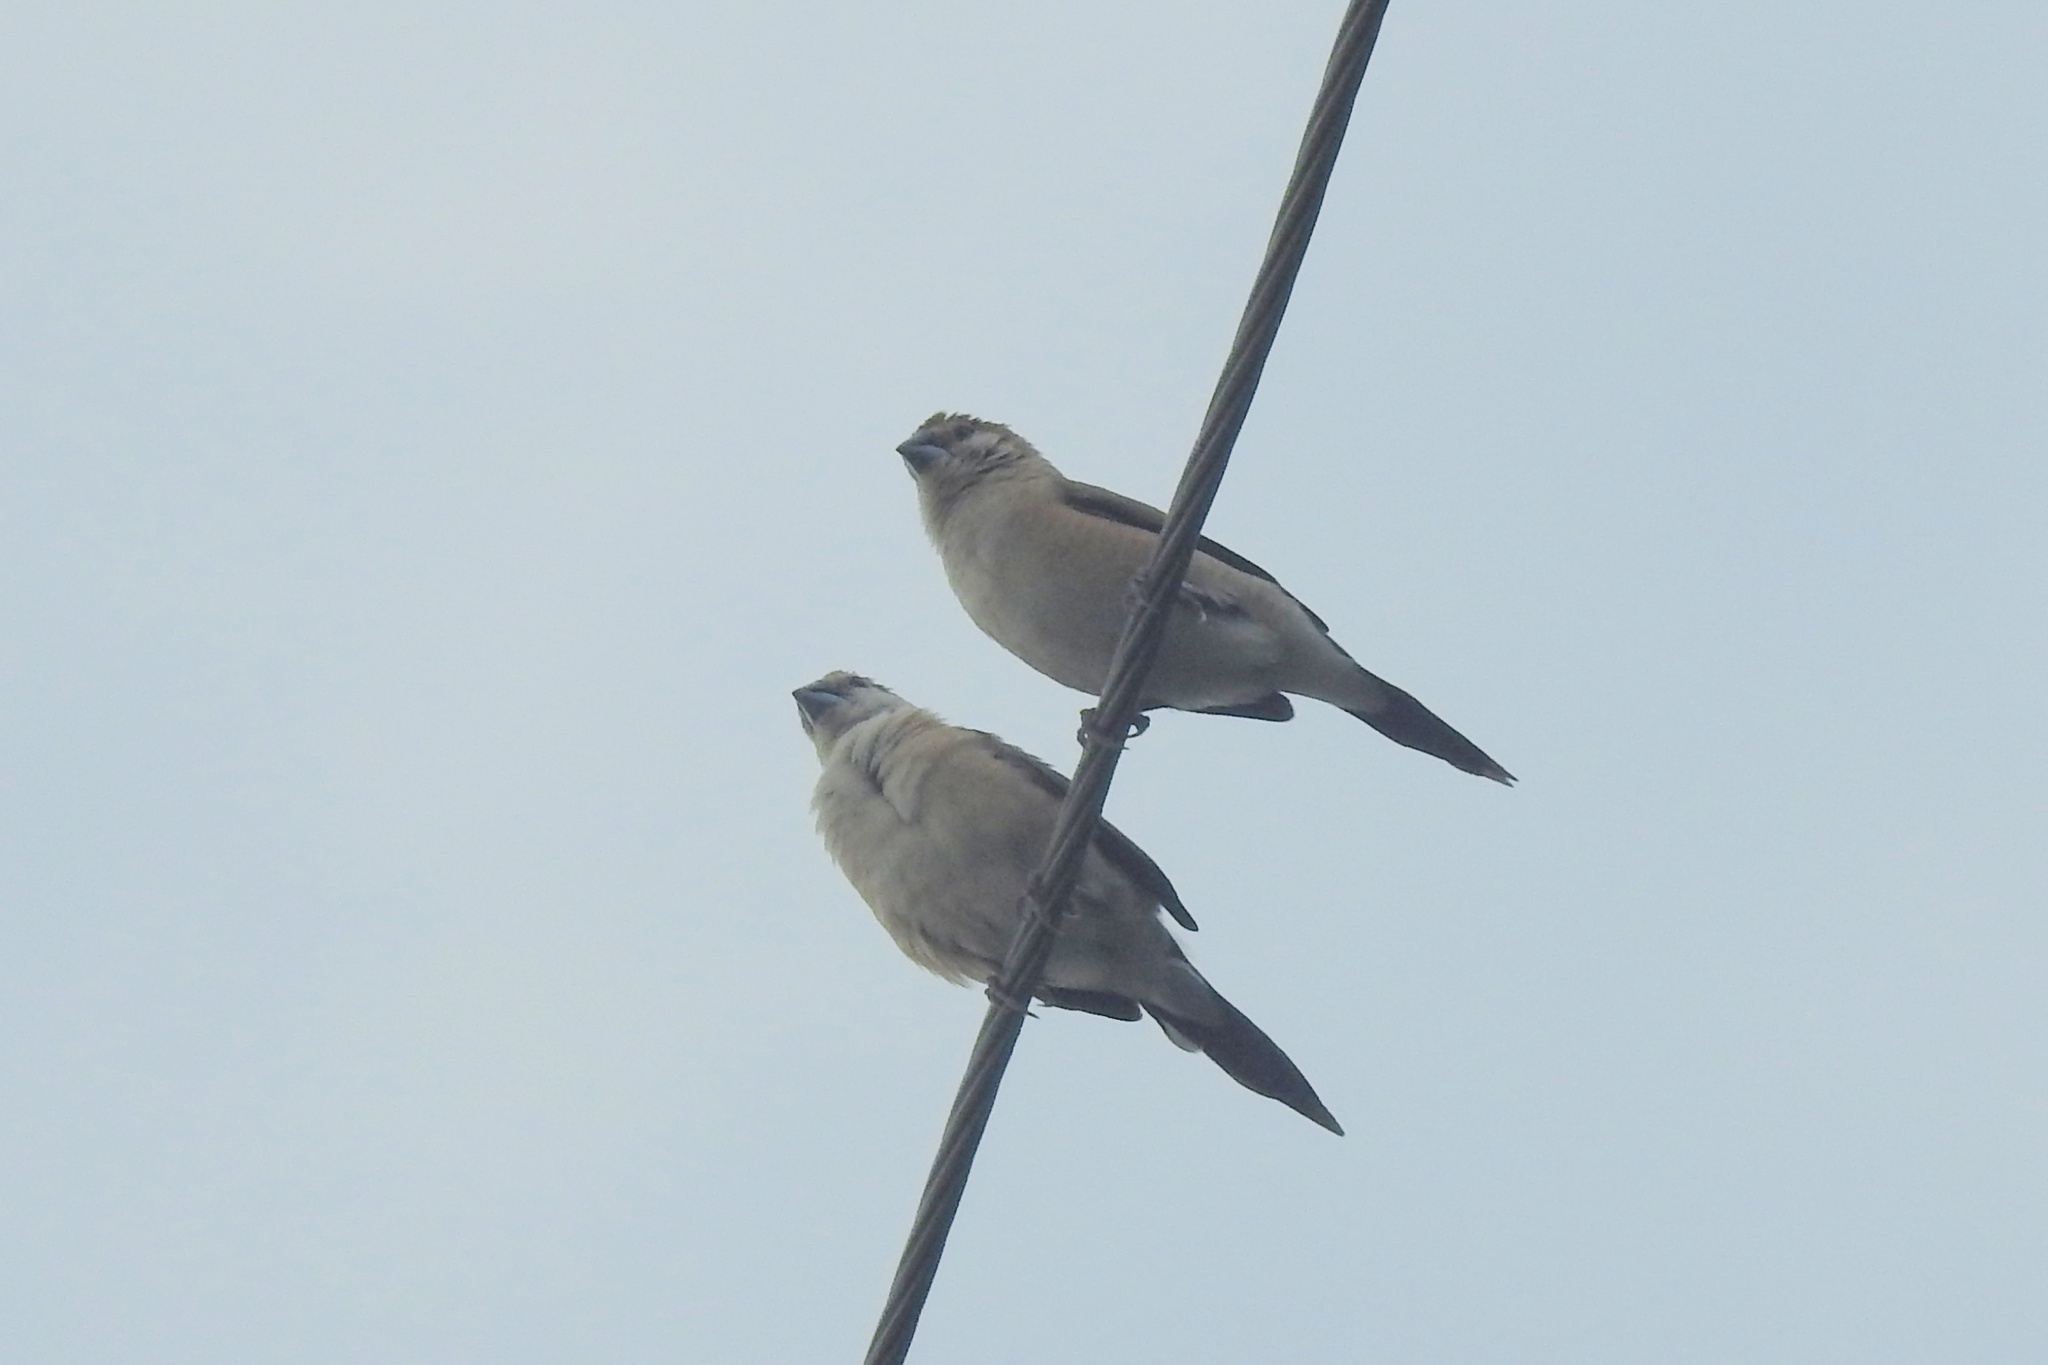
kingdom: Animalia
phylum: Chordata
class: Aves
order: Passeriformes
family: Estrildidae
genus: Euodice
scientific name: Euodice malabarica
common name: Indian silverbill
